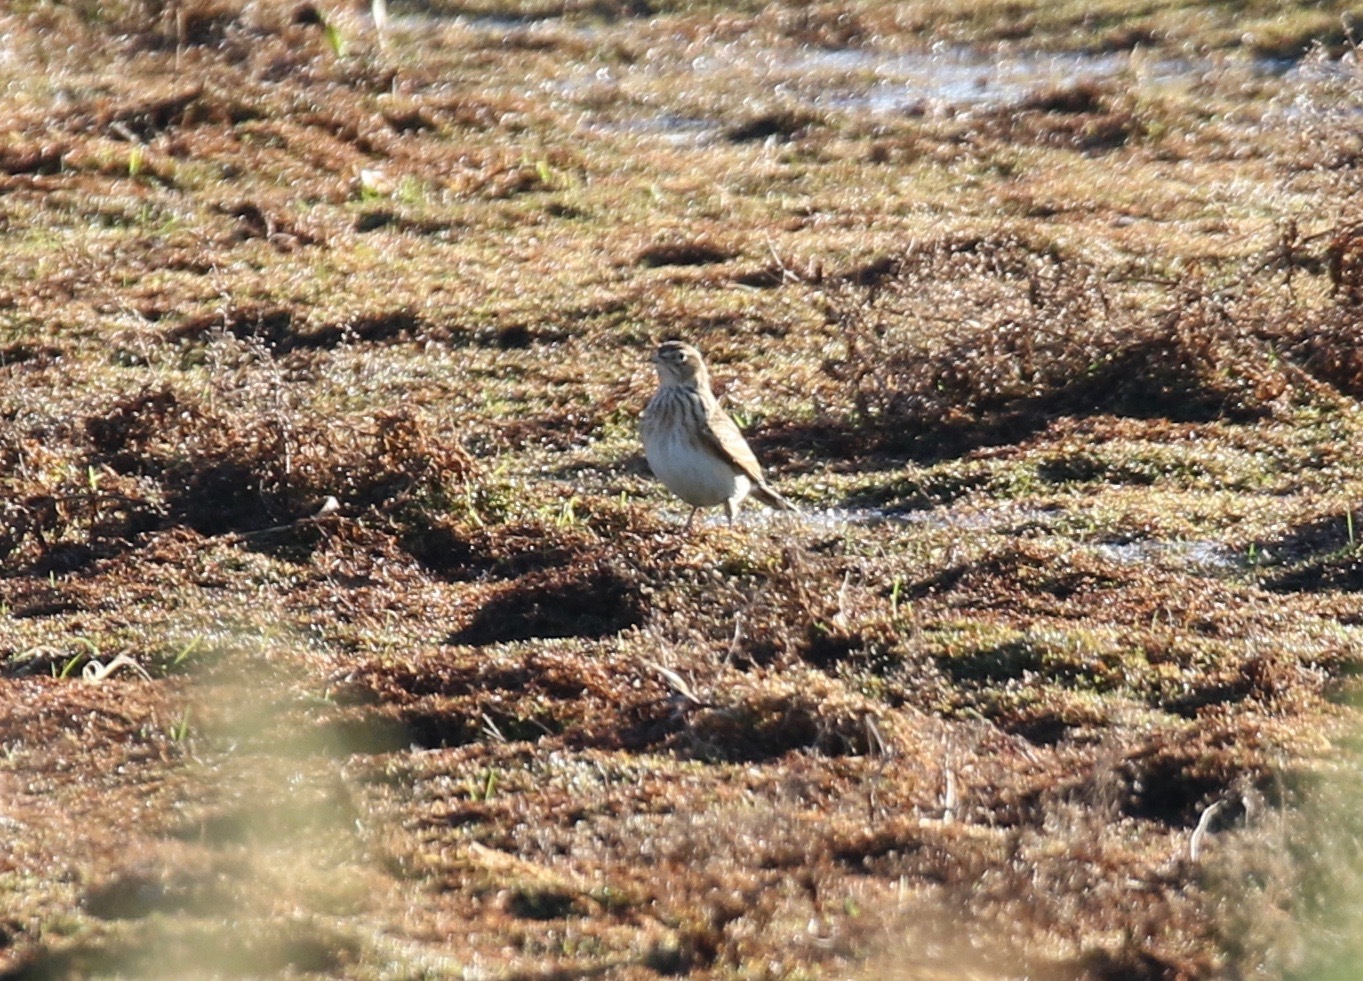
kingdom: Animalia
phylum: Chordata
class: Aves
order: Passeriformes
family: Alaudidae
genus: Alauda
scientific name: Alauda arvensis
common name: Eurasian skylark
